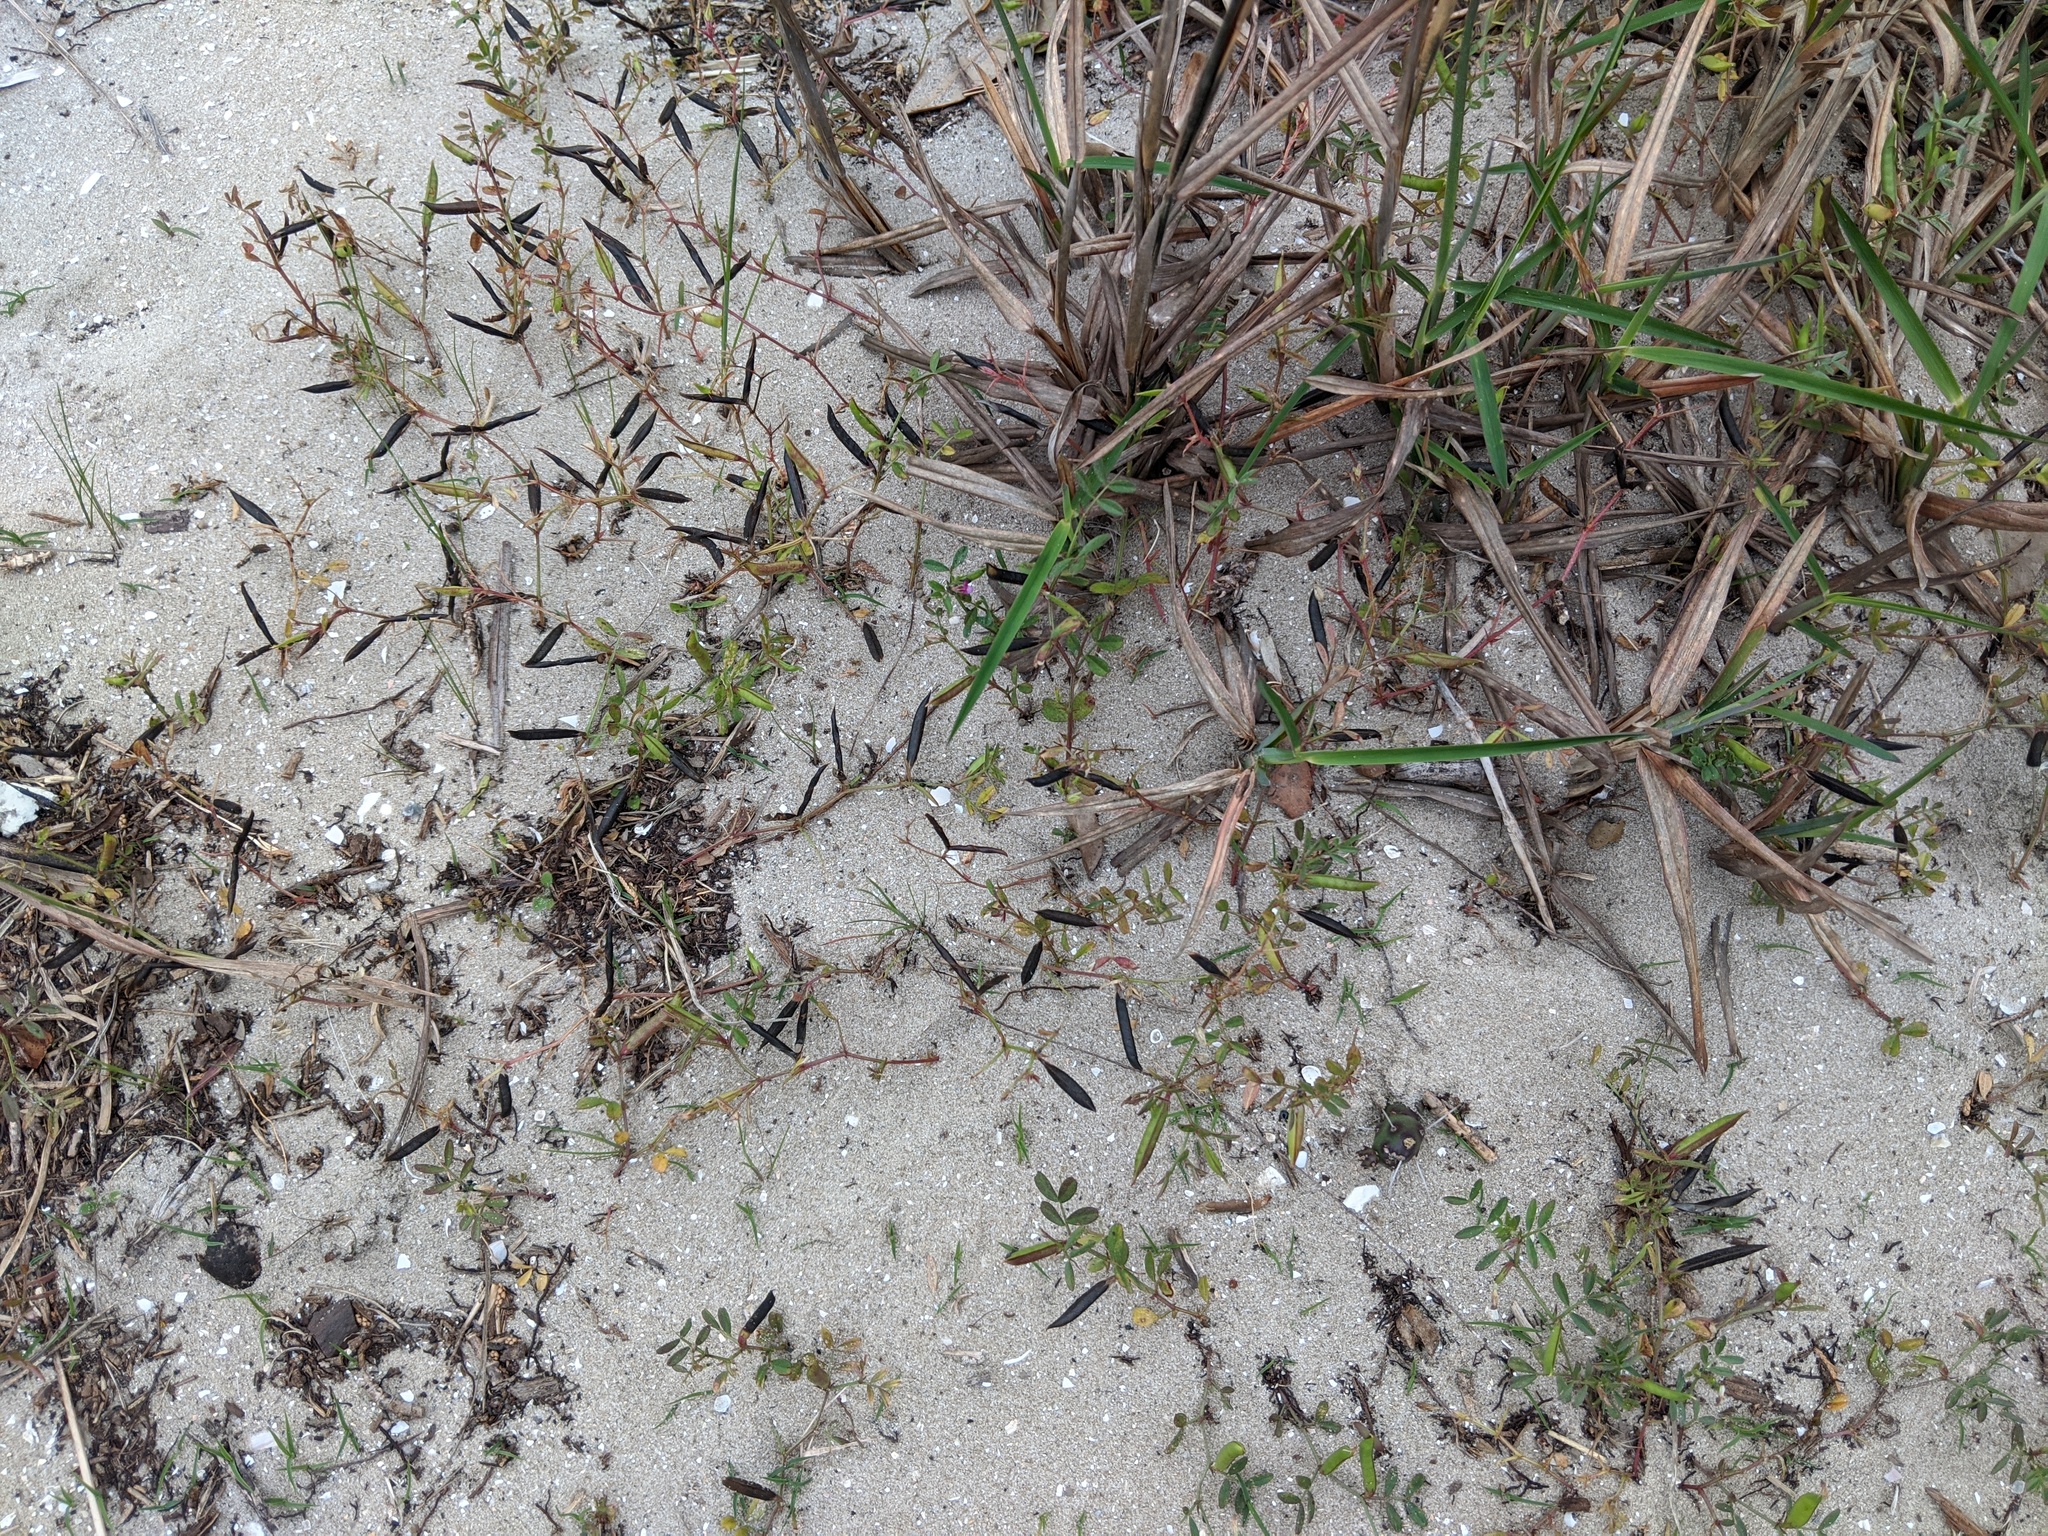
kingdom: Plantae
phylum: Tracheophyta
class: Magnoliopsida
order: Fabales
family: Fabaceae
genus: Vicia
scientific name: Vicia lathyroides
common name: Spring vetch
